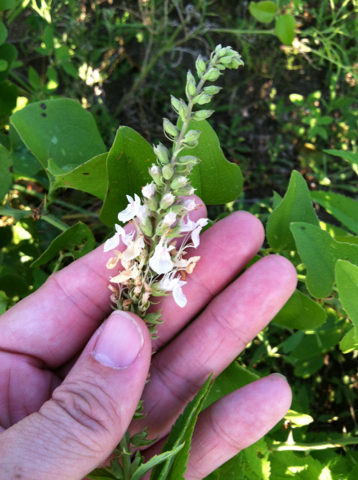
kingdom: Plantae
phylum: Tracheophyta
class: Magnoliopsida
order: Lamiales
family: Lamiaceae
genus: Teucrium
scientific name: Teucrium canadense
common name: American germander
